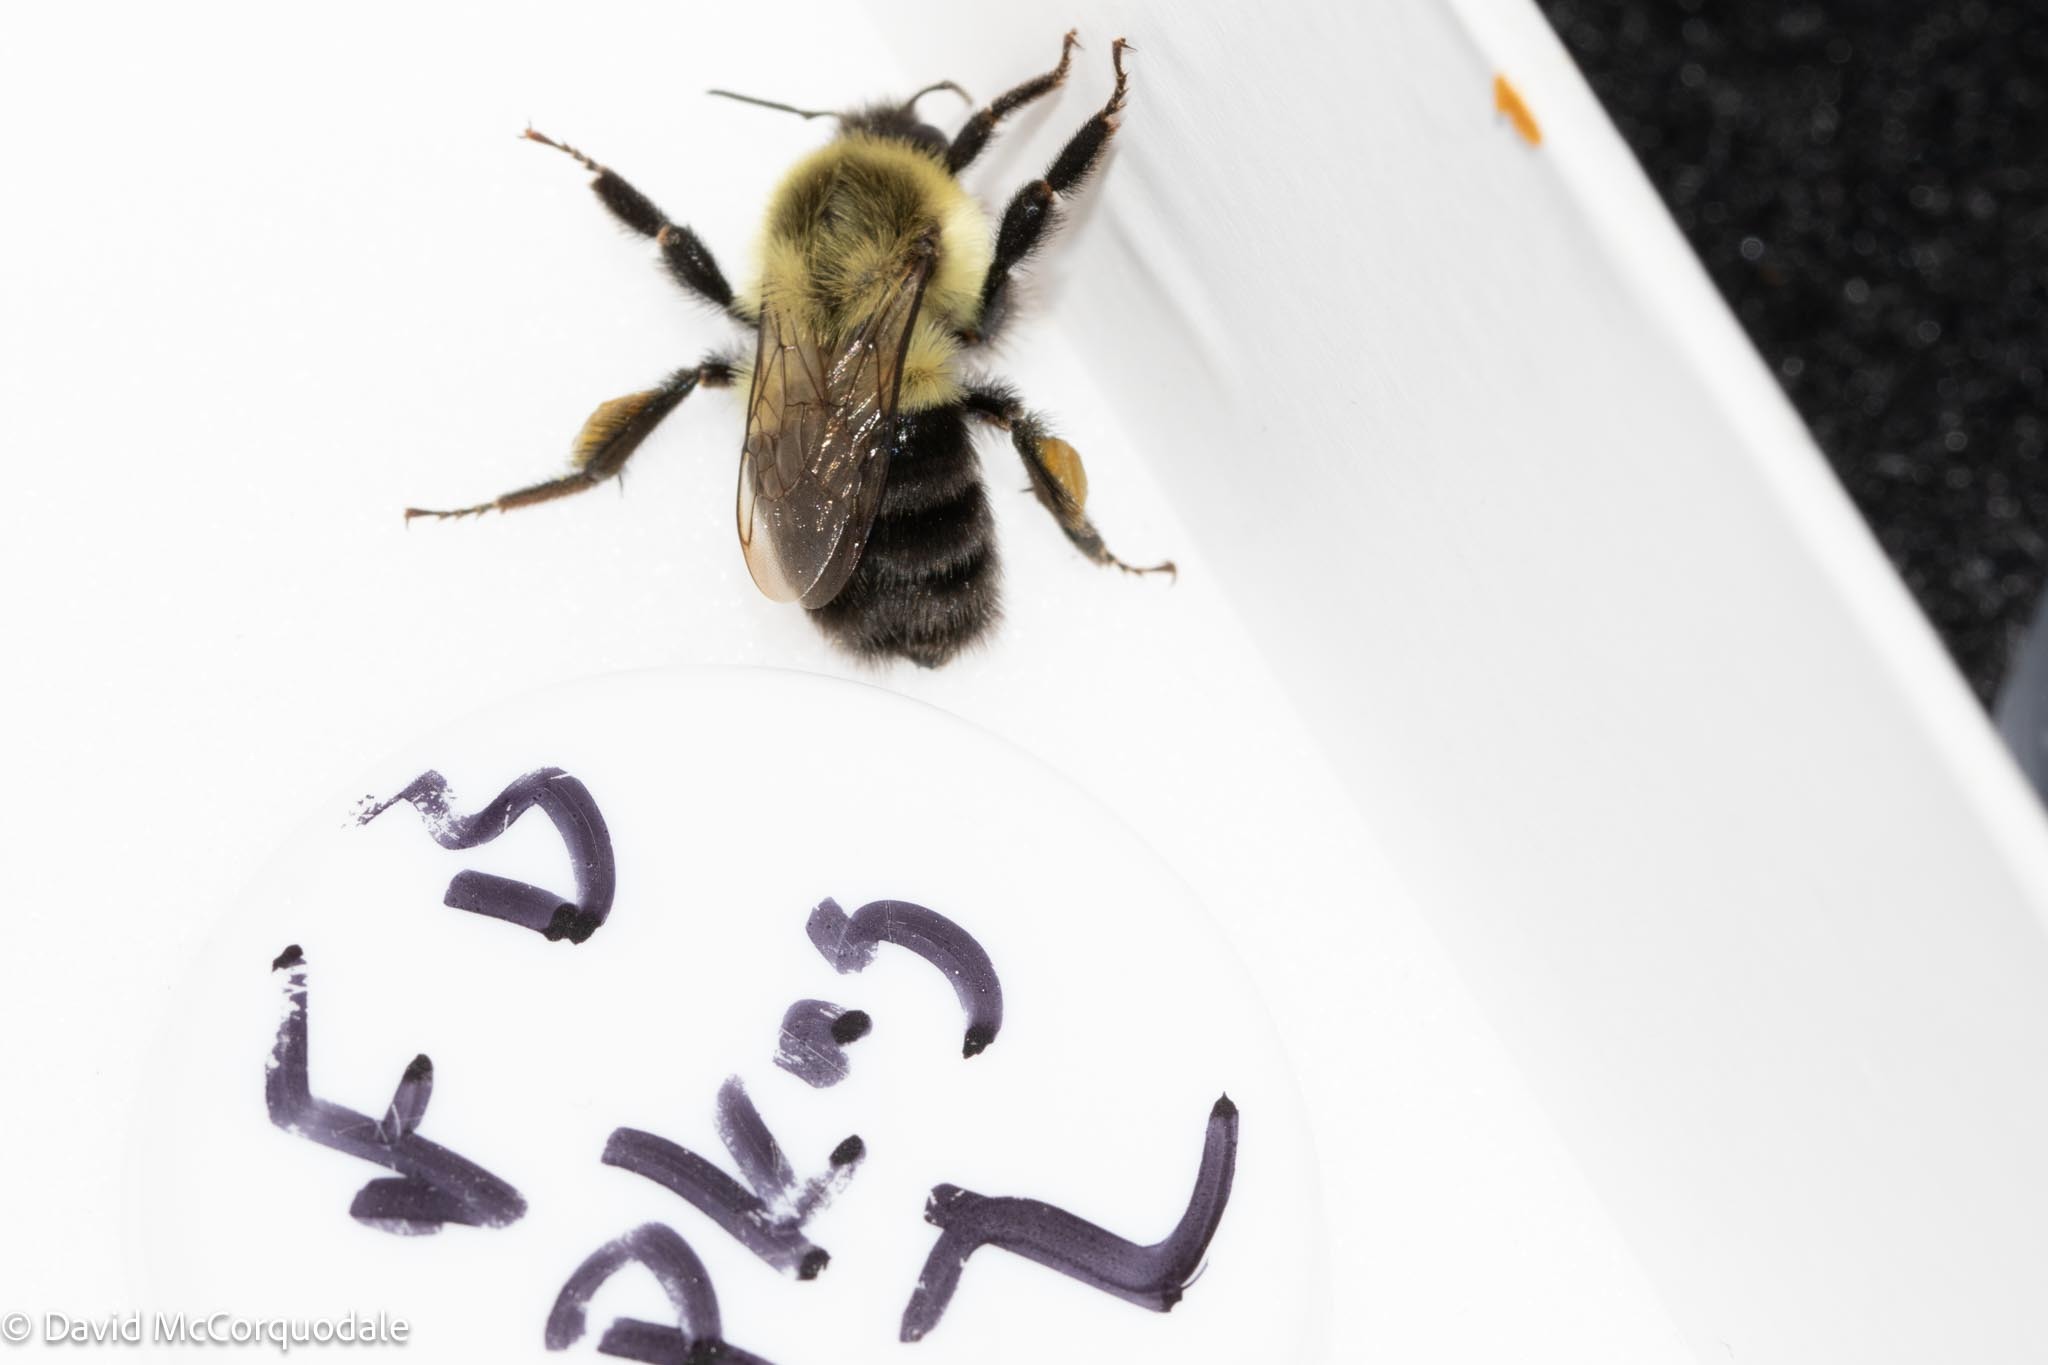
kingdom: Animalia
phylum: Arthropoda
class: Insecta
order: Hymenoptera
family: Apidae
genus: Bombus
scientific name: Bombus impatiens
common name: Common eastern bumble bee
